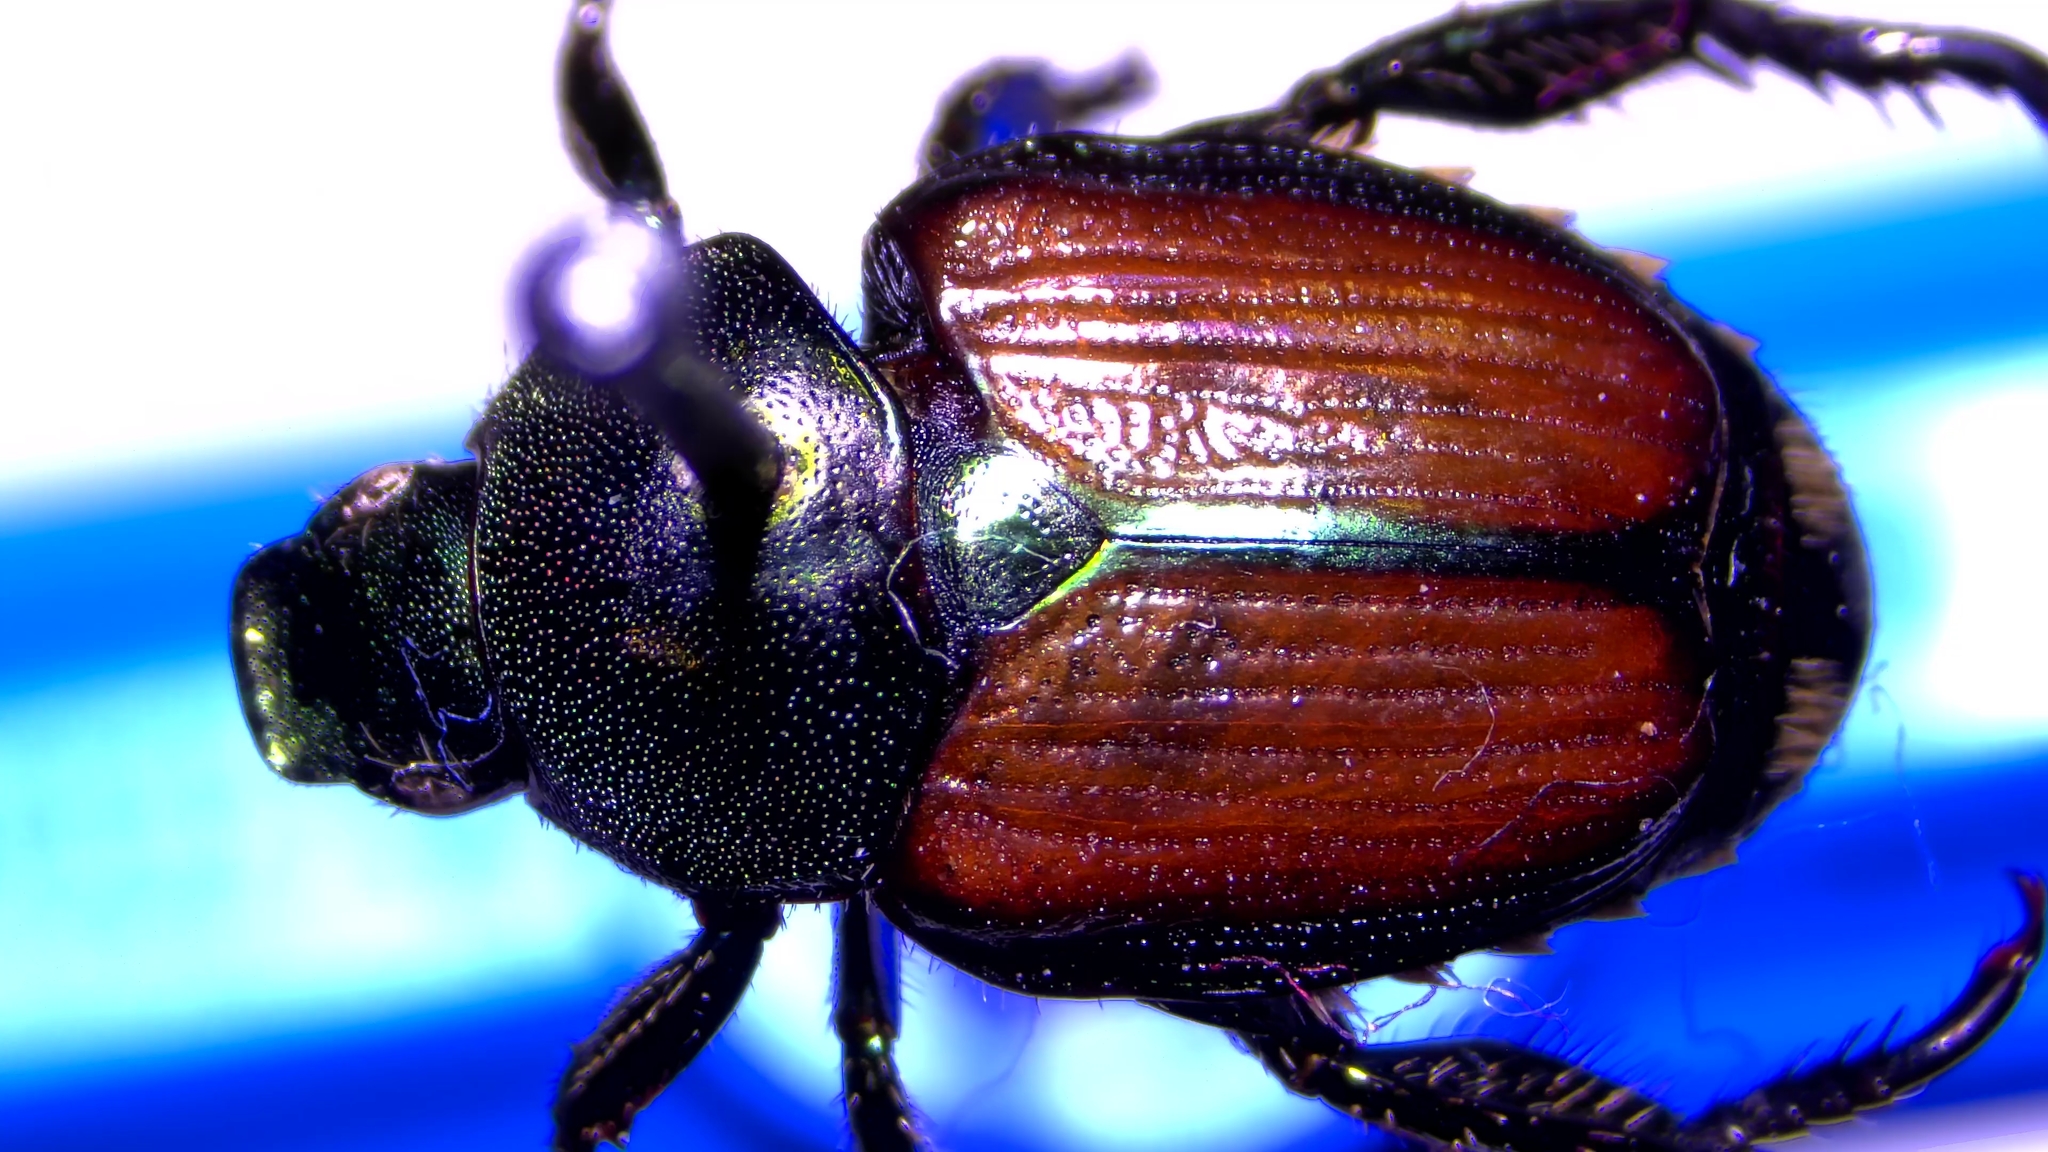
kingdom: Animalia
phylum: Arthropoda
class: Insecta
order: Coleoptera
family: Scarabaeidae
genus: Popillia
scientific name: Popillia japonica
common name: Japanese beetle
